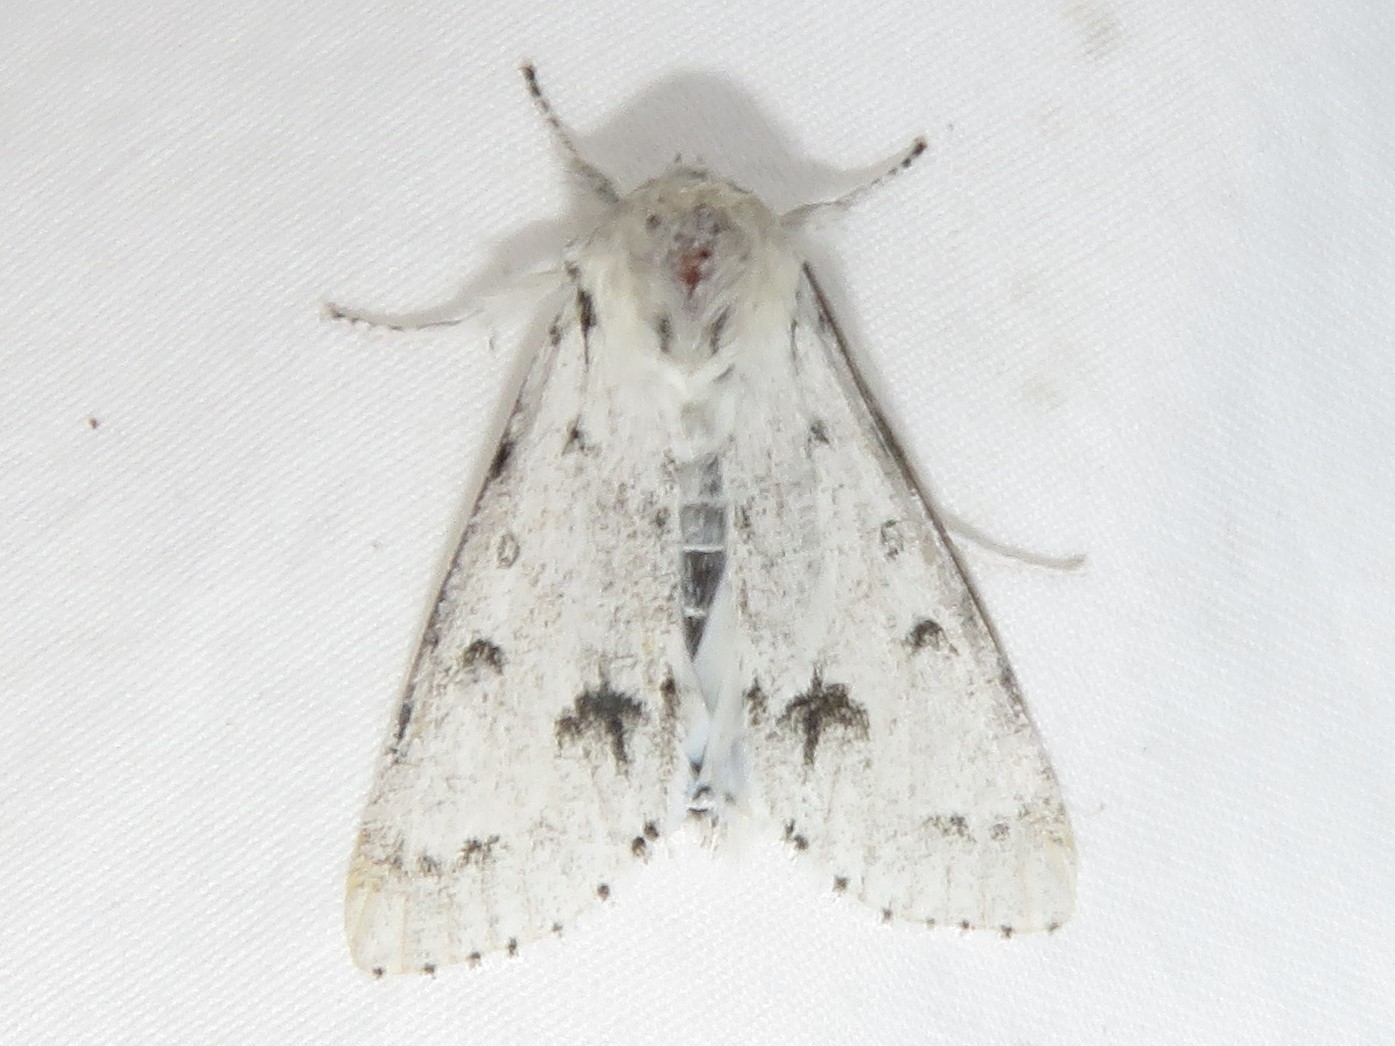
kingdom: Animalia
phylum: Arthropoda
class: Insecta
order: Lepidoptera
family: Noctuidae
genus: Acronicta
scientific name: Acronicta vulpina
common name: Miller dagger
